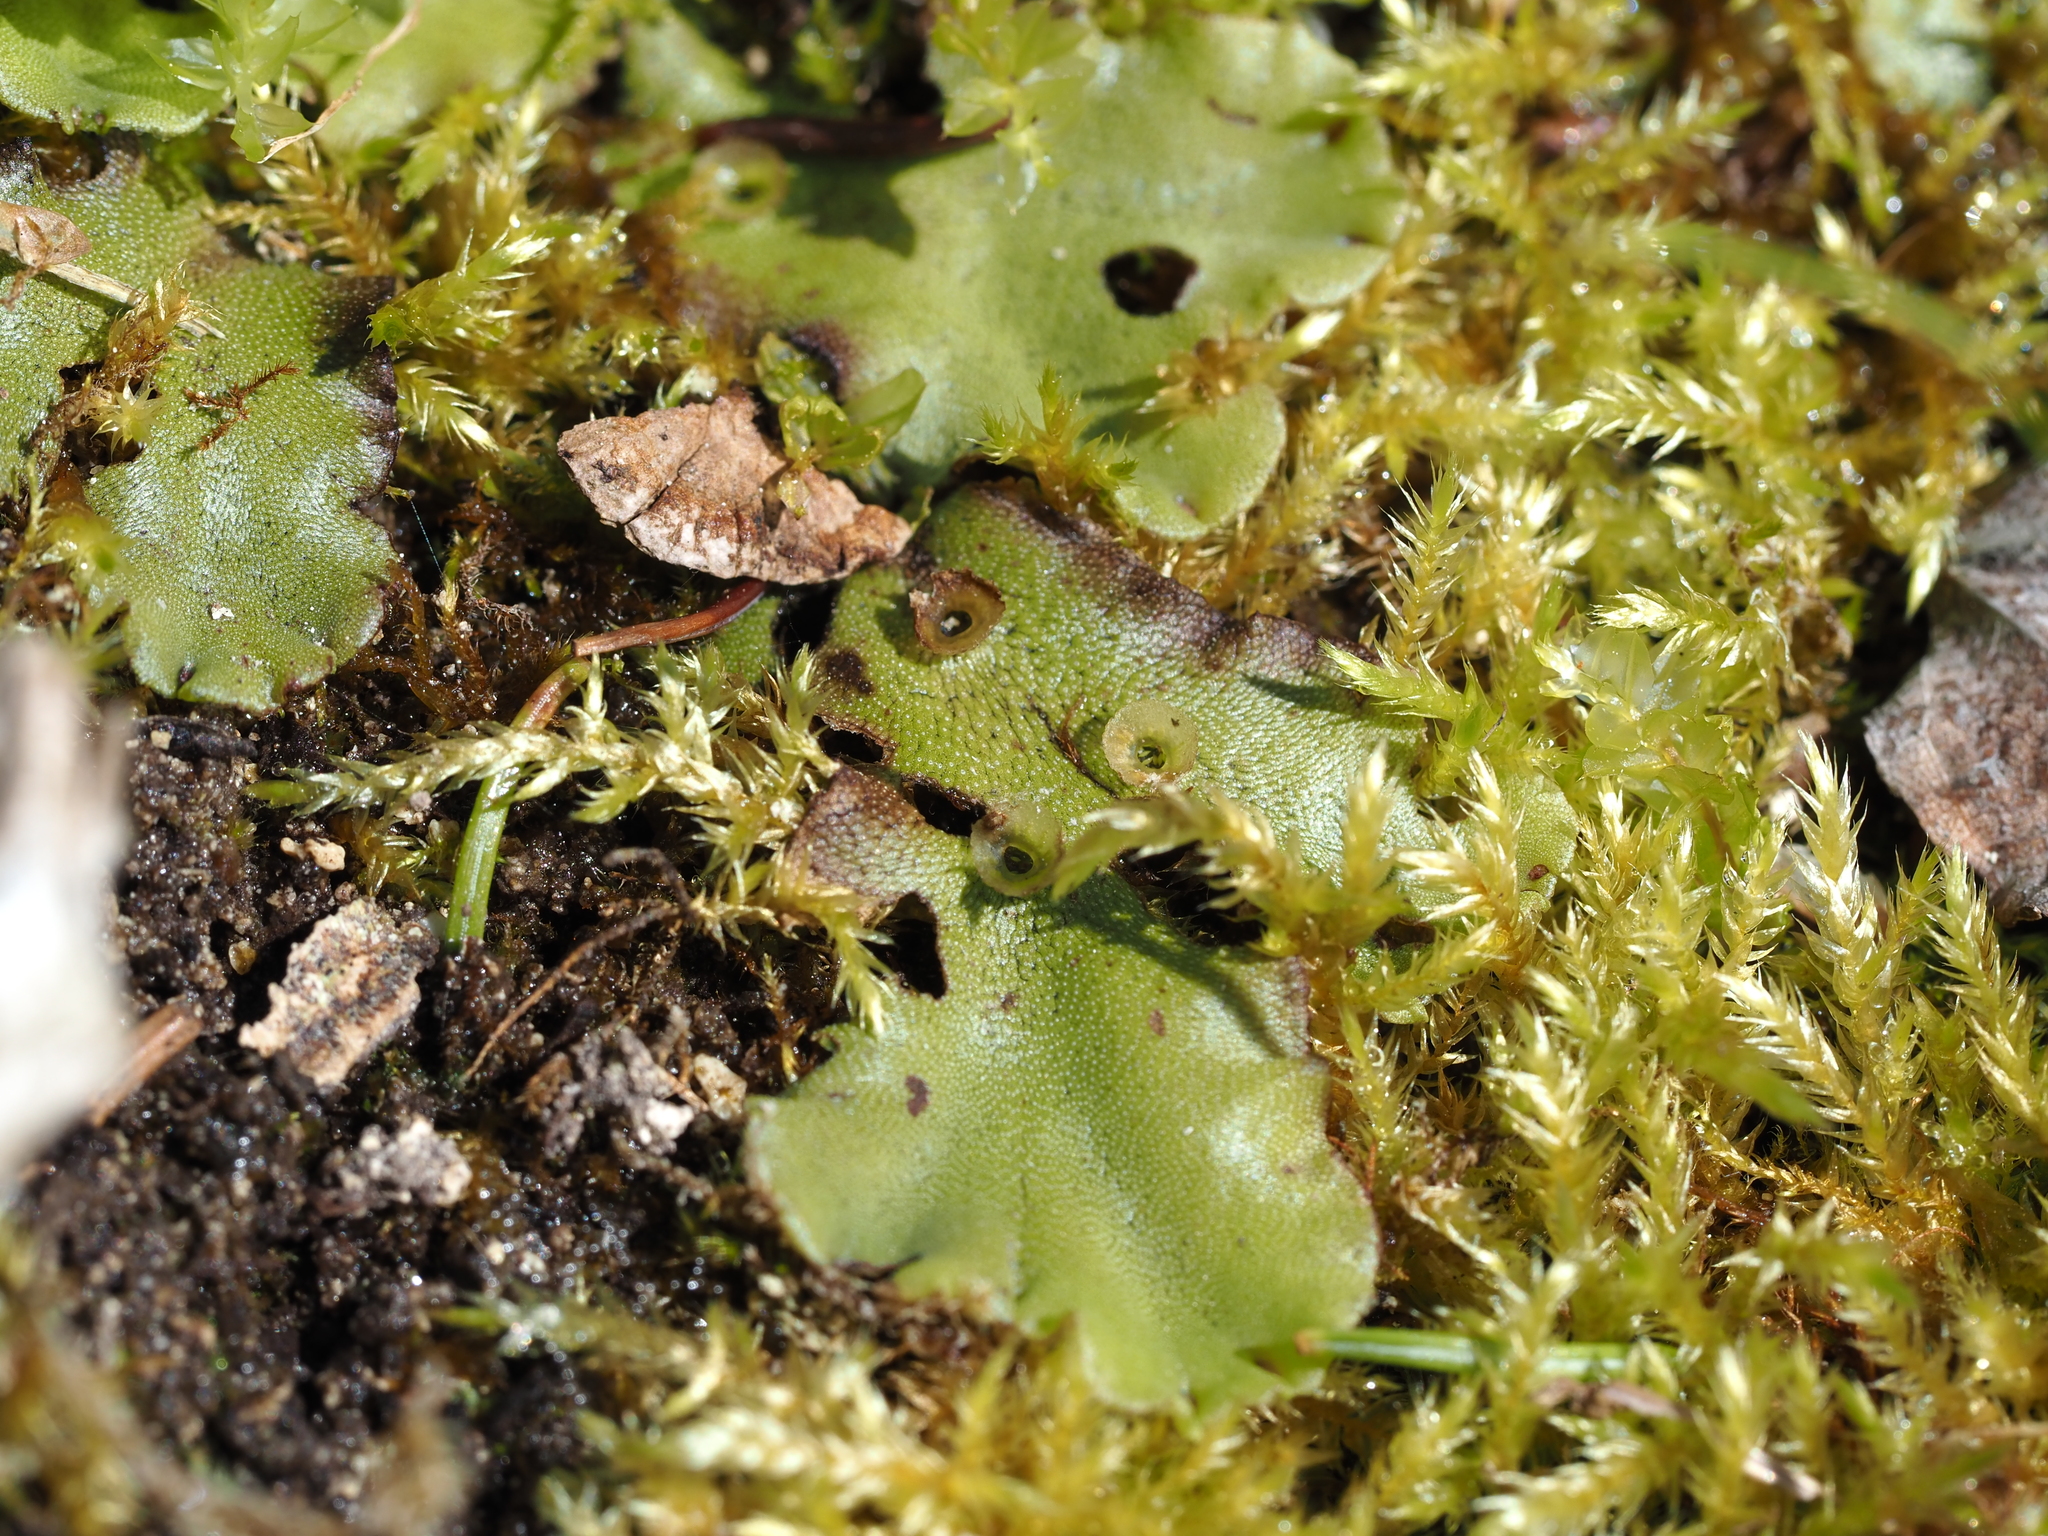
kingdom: Plantae
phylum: Marchantiophyta
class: Marchantiopsida
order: Marchantiales
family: Marchantiaceae
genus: Marchantia
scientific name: Marchantia polymorpha
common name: Common liverwort
